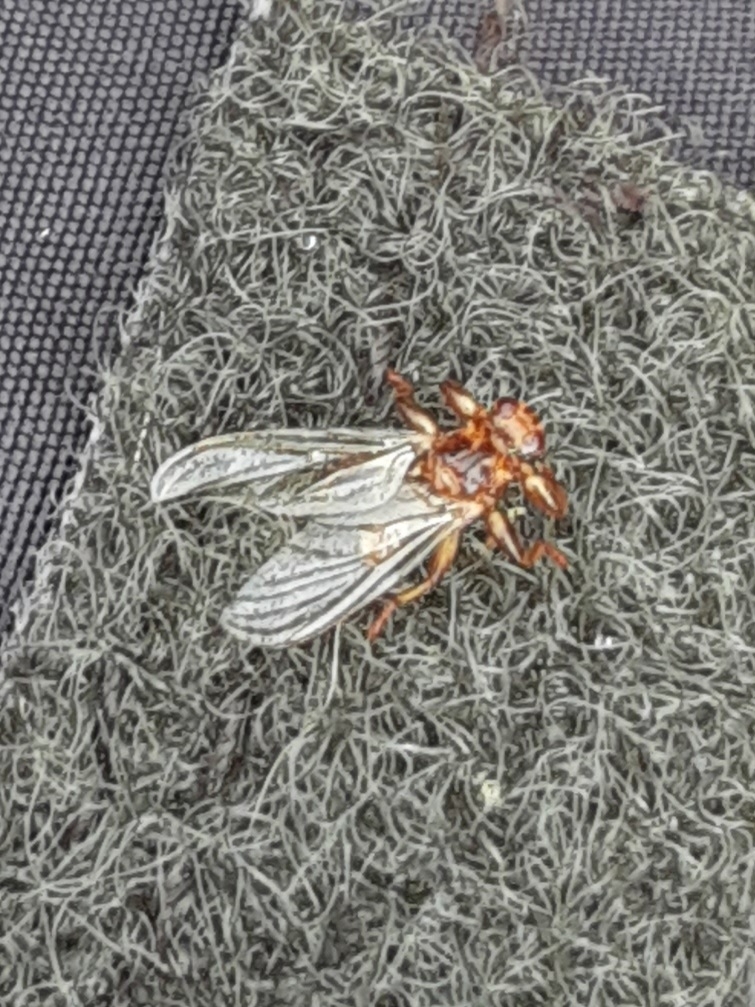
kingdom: Animalia
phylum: Arthropoda
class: Insecta
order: Diptera
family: Hippoboscidae
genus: Lipoptena
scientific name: Lipoptena cervi
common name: Deer ked
